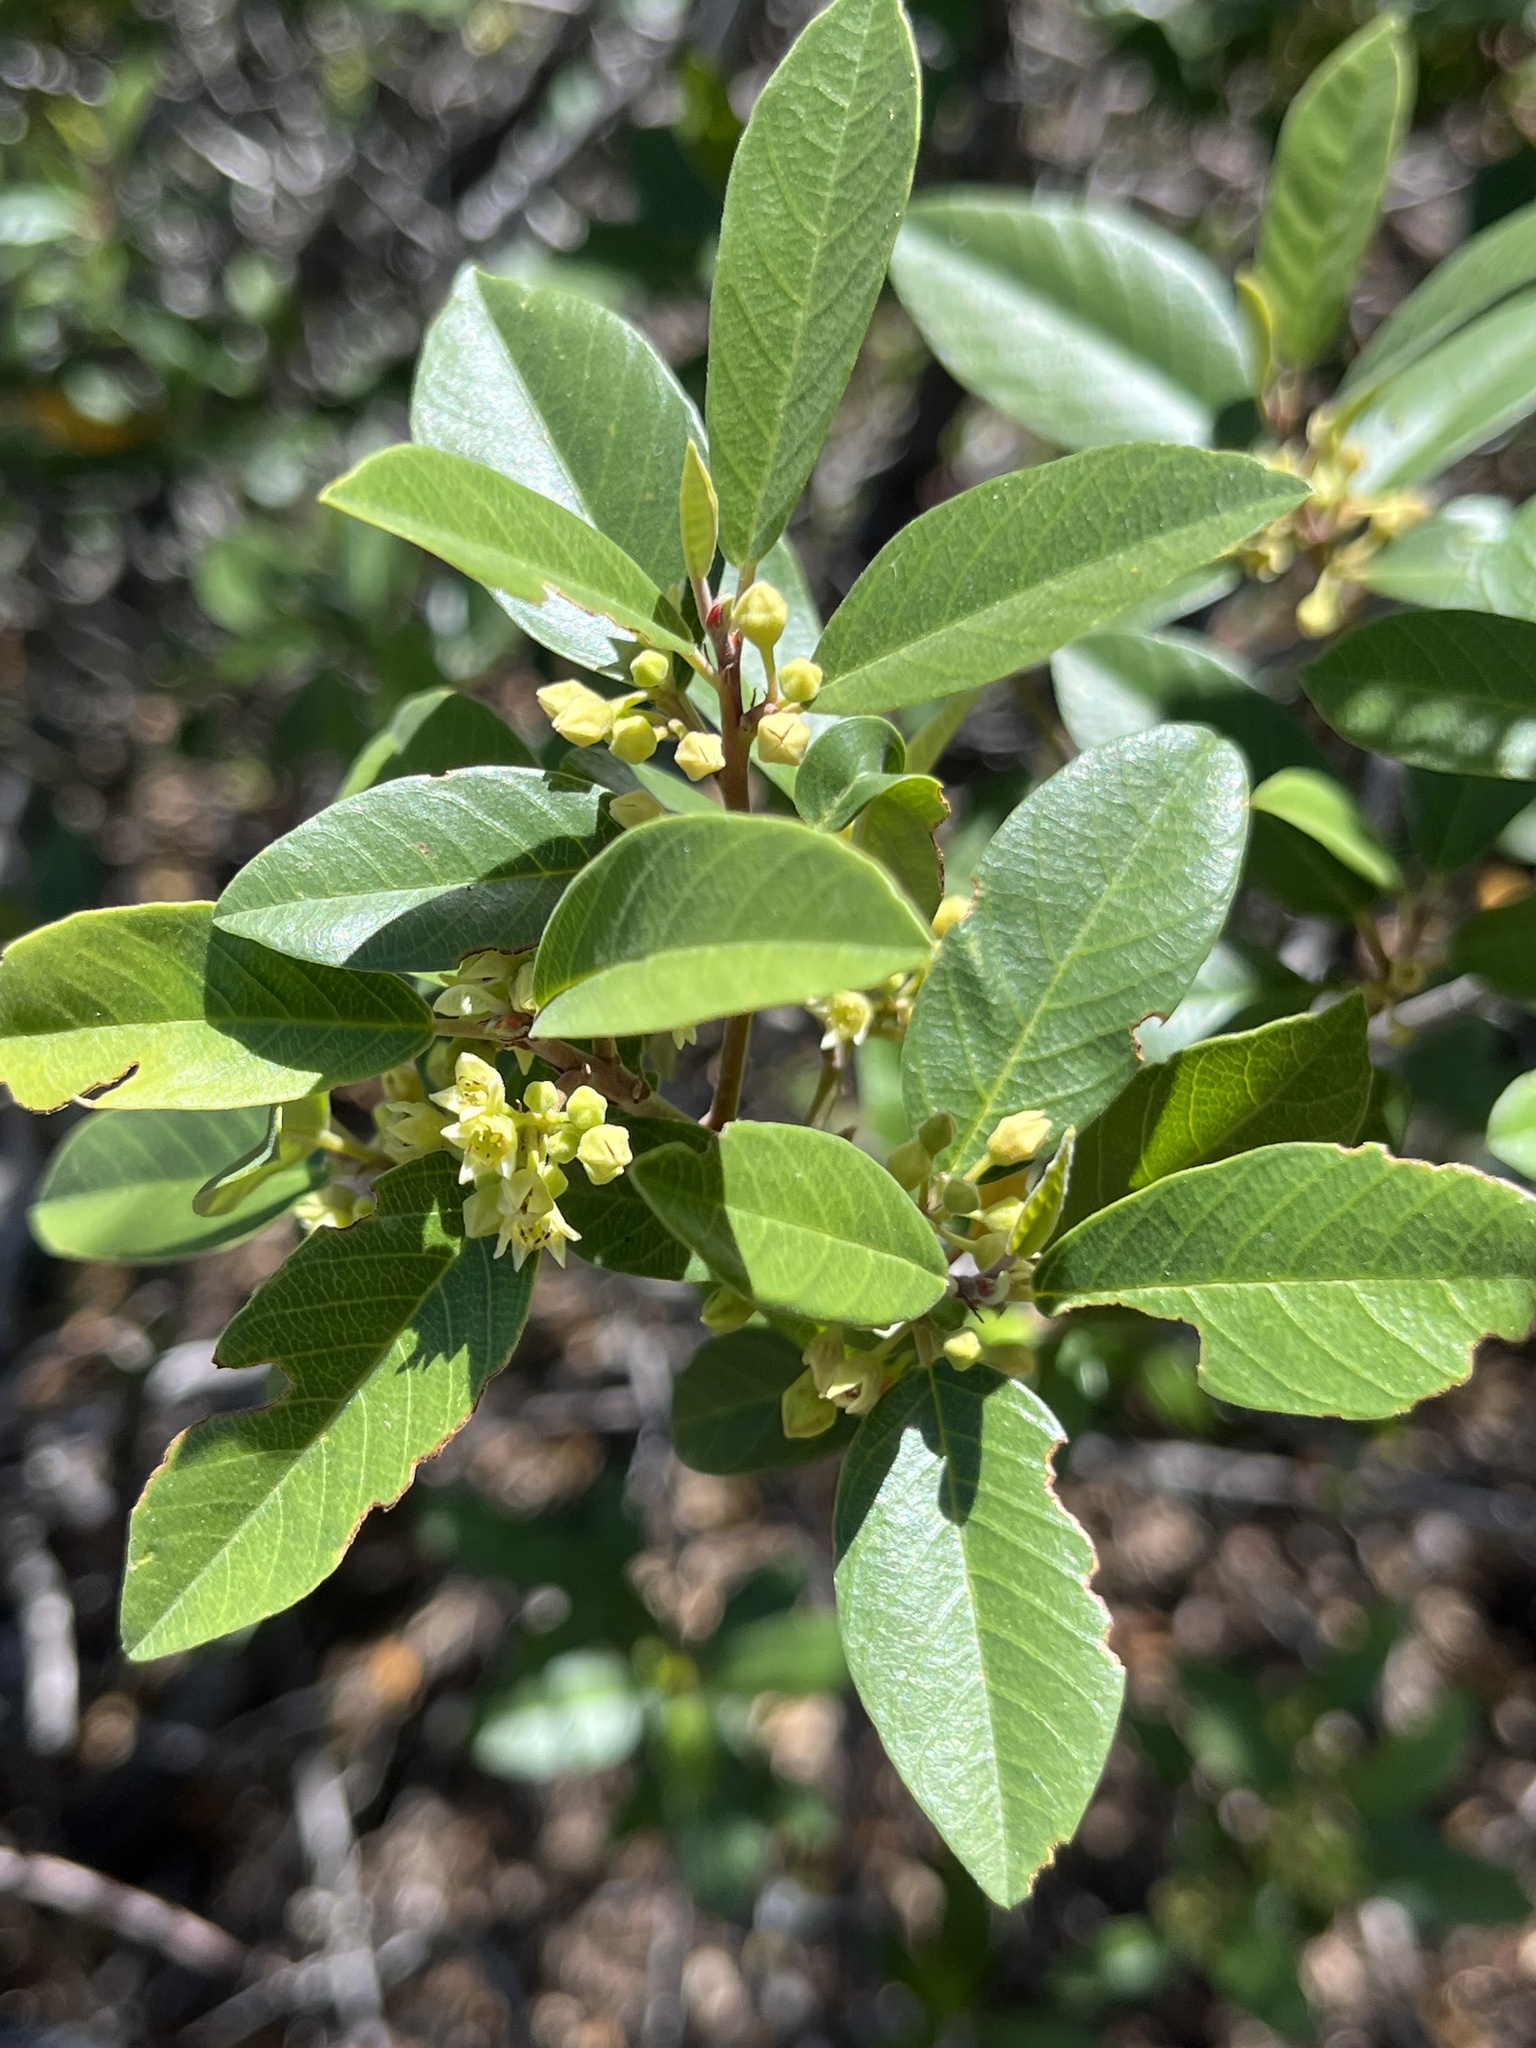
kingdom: Plantae
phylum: Tracheophyta
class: Magnoliopsida
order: Rosales
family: Rhamnaceae
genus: Frangula
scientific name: Frangula californica
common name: California buckthorn
